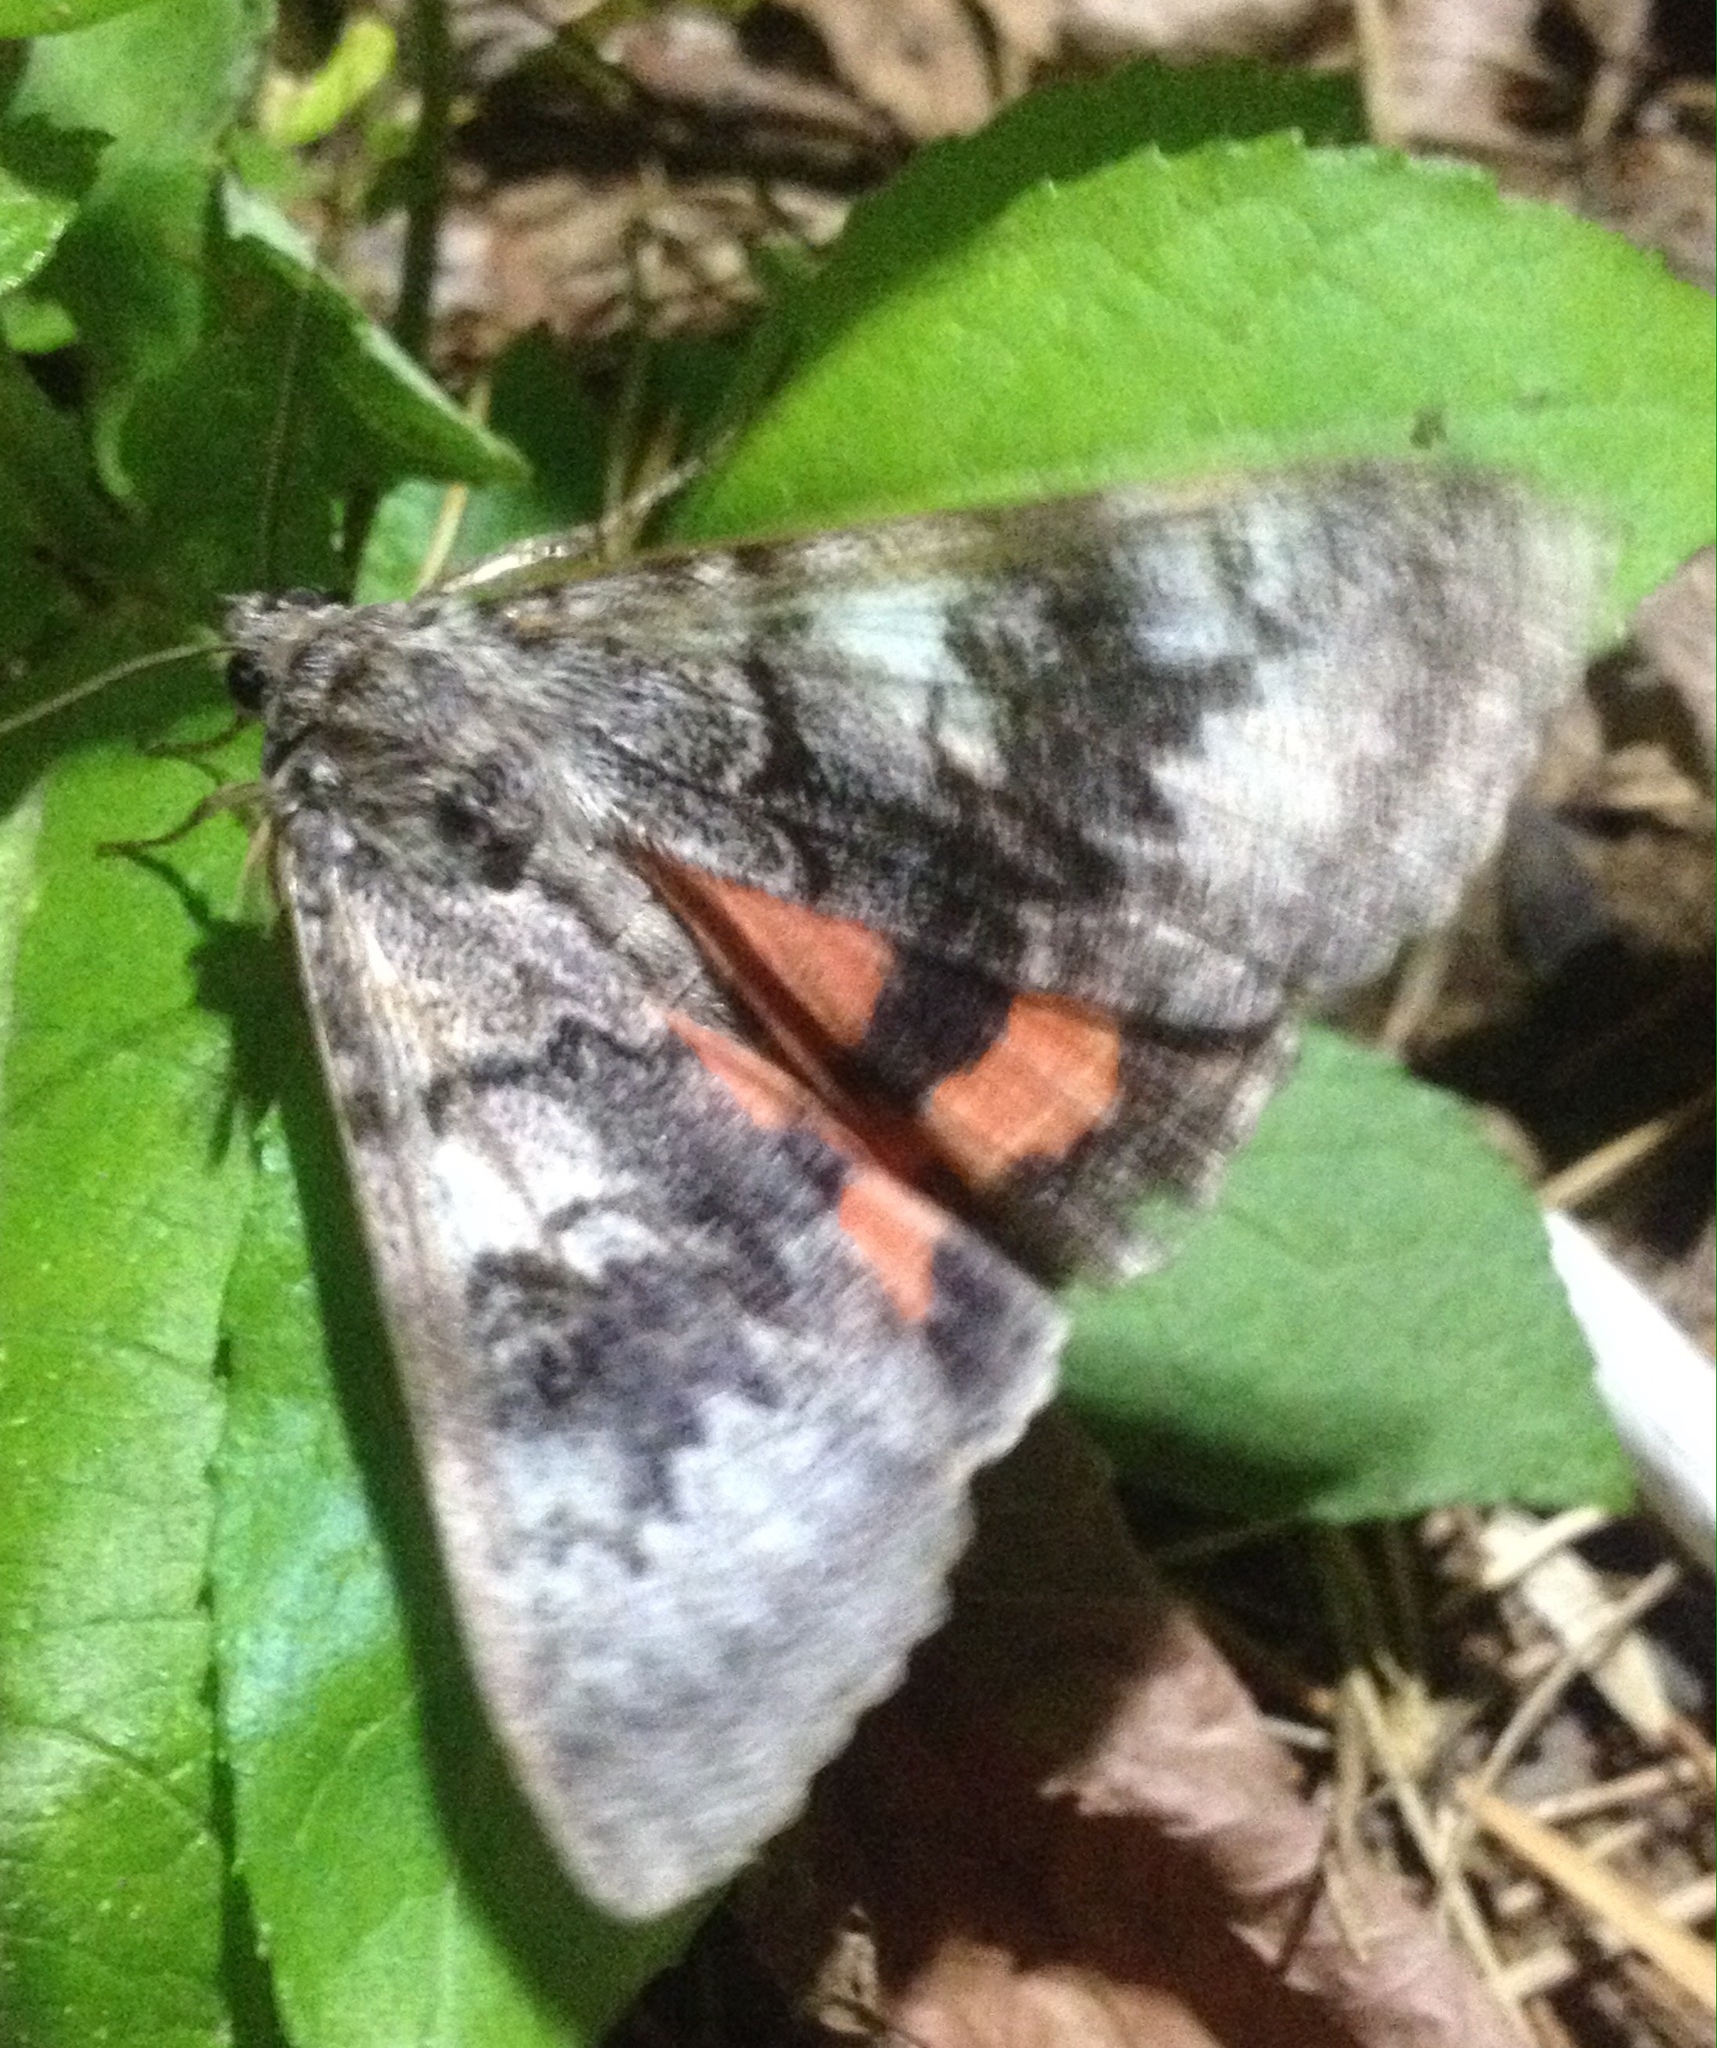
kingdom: Animalia
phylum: Arthropoda
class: Insecta
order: Lepidoptera
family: Erebidae
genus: Catocala
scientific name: Catocala adultera
